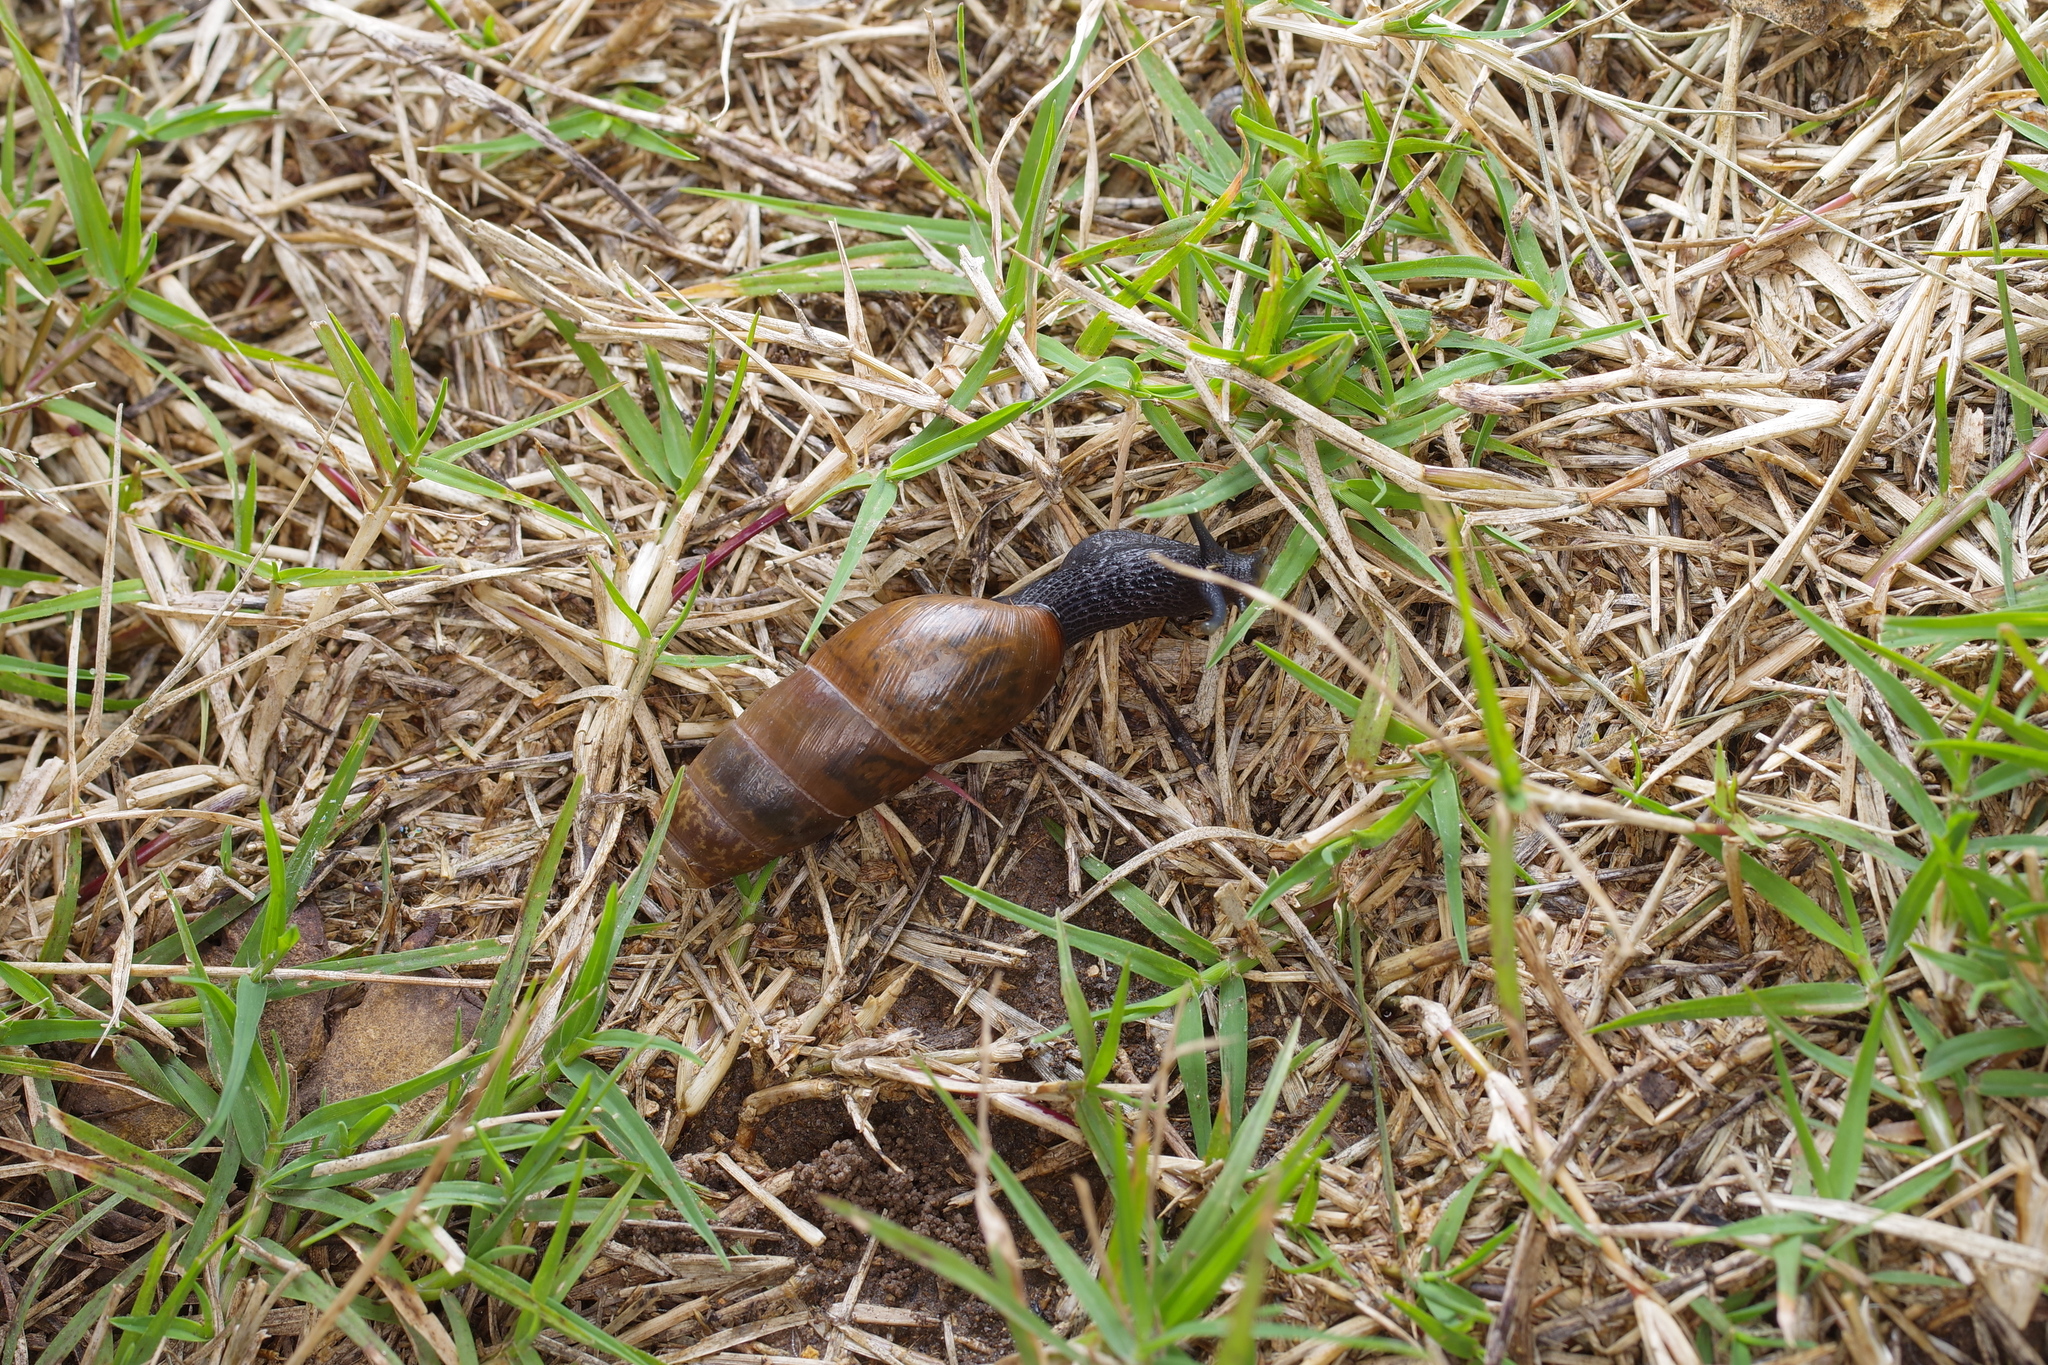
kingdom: Animalia
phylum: Mollusca
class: Gastropoda
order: Stylommatophora
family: Achatinidae
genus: Rumina
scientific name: Rumina decollata
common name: Decollate snail
